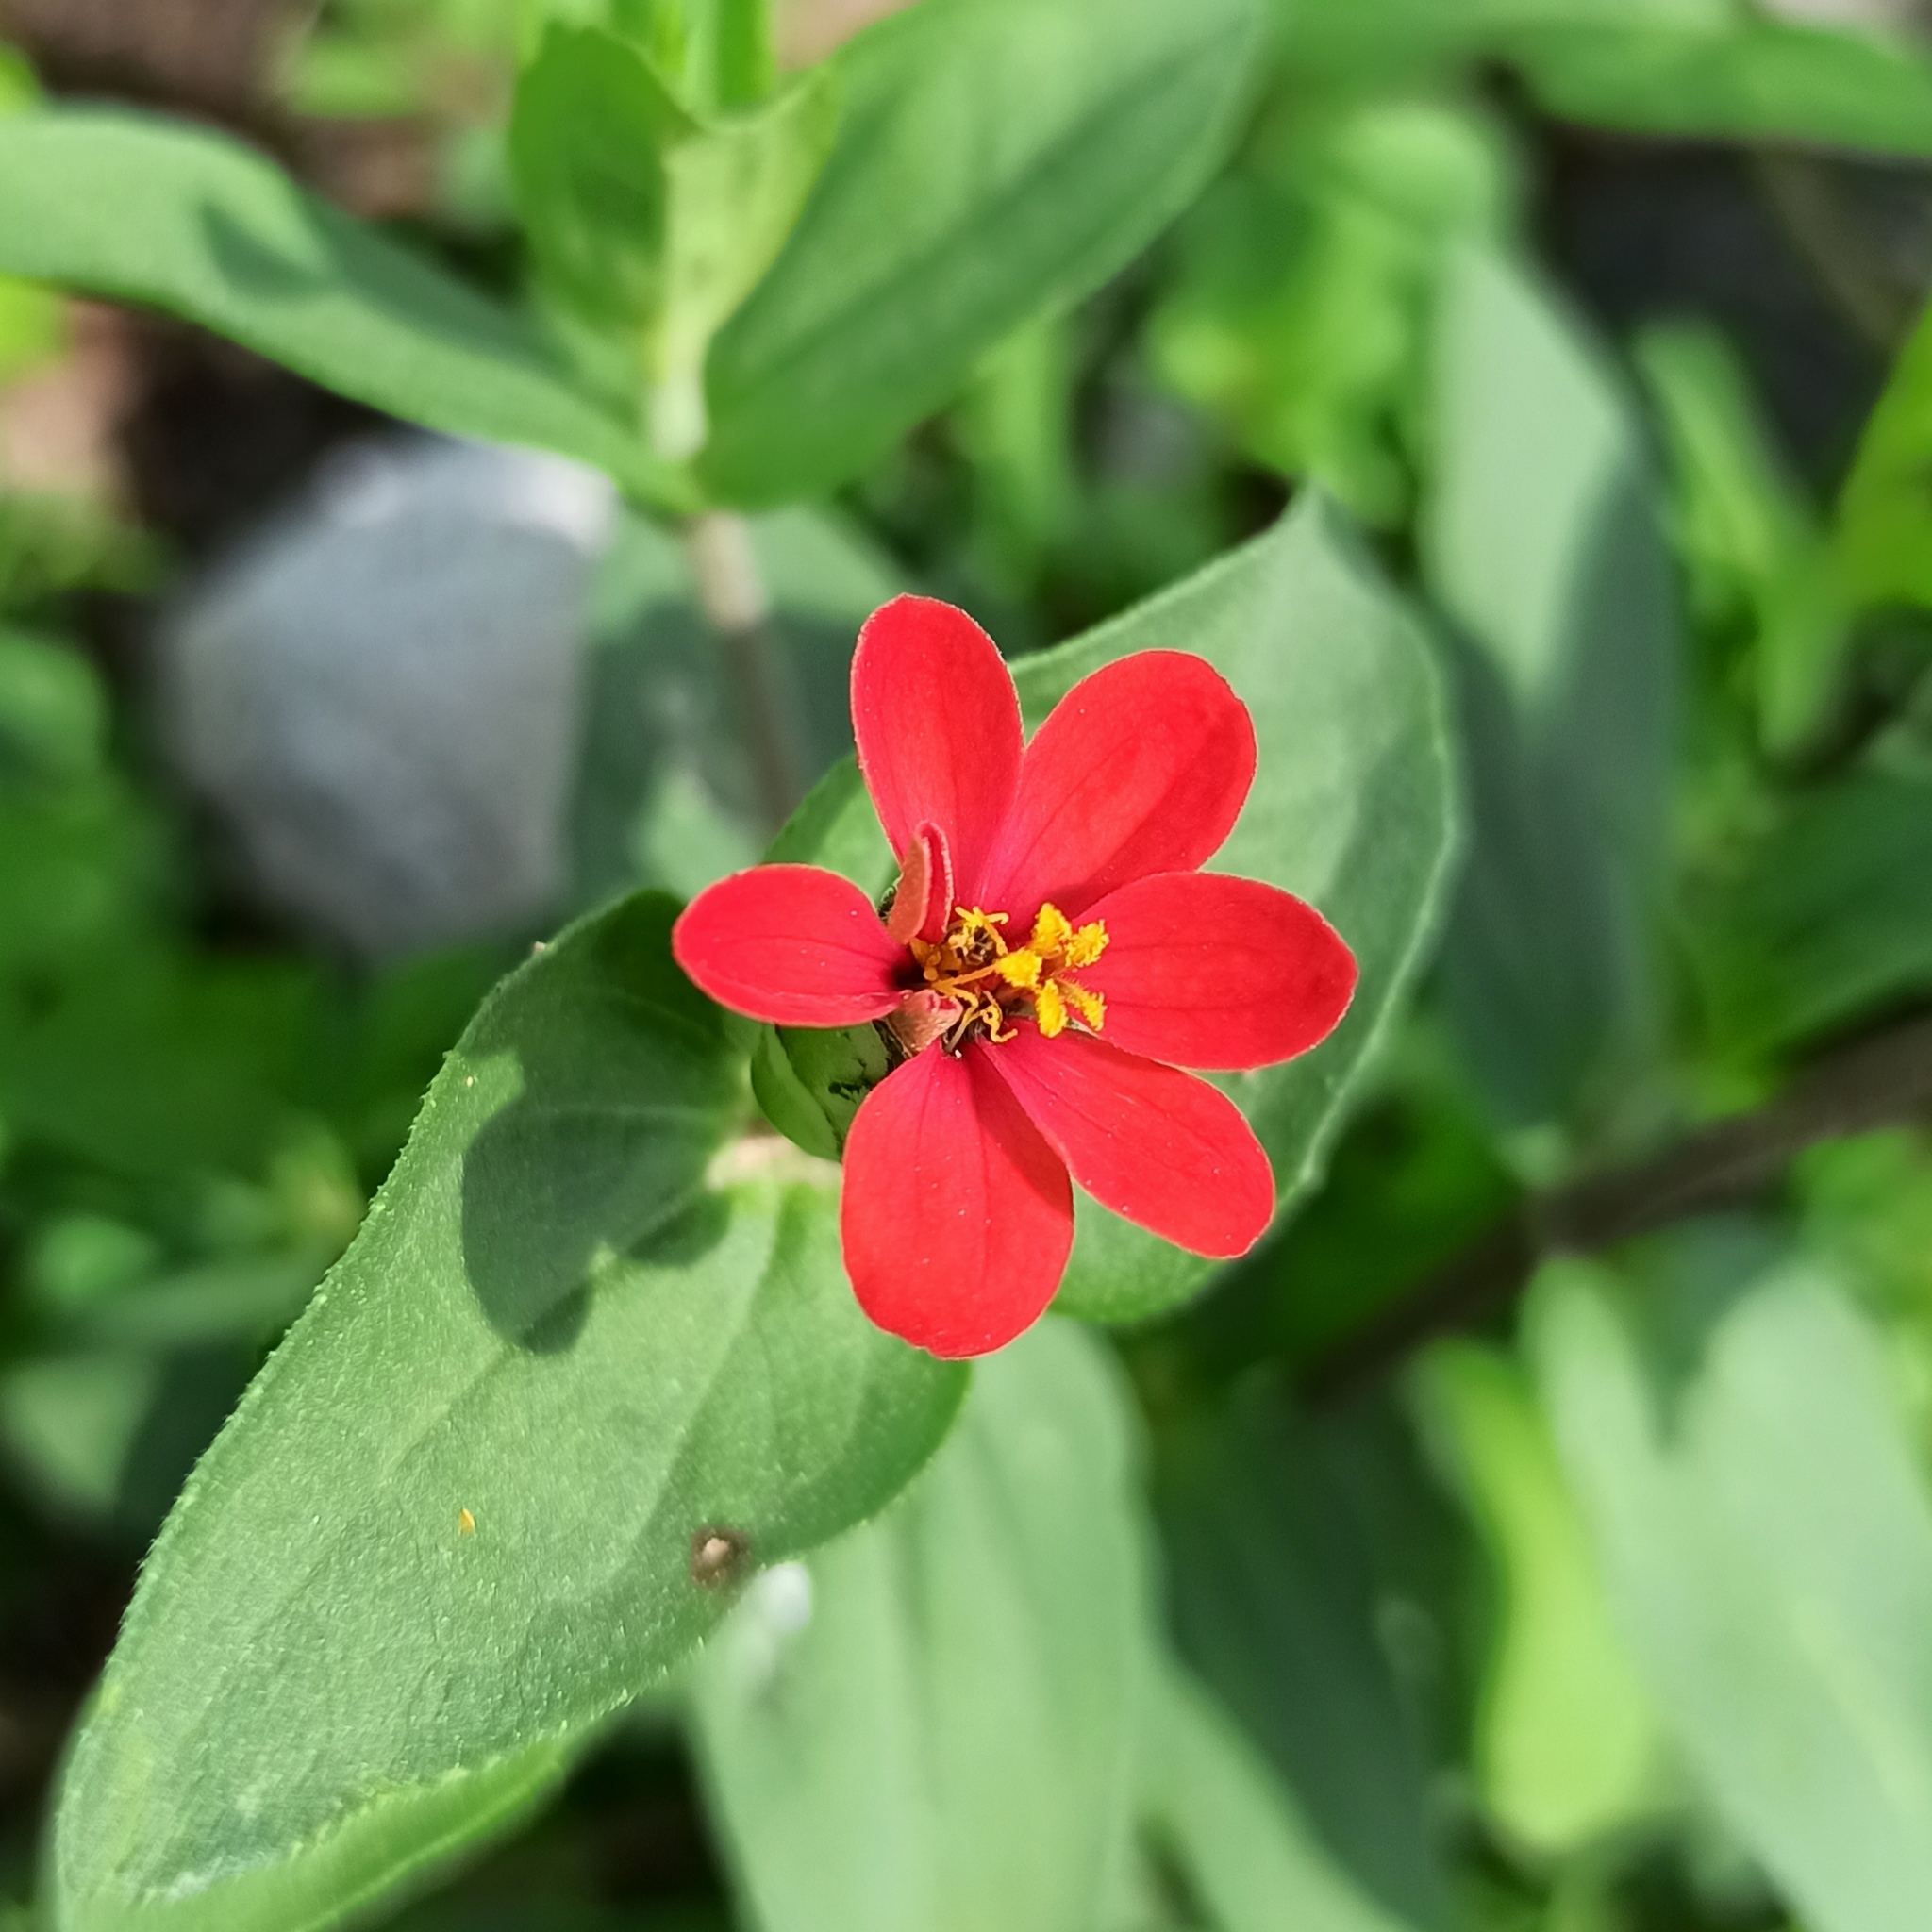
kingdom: Plantae
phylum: Tracheophyta
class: Magnoliopsida
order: Asterales
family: Asteraceae
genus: Zinnia
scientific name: Zinnia peruviana
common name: Peruvian zinnia
